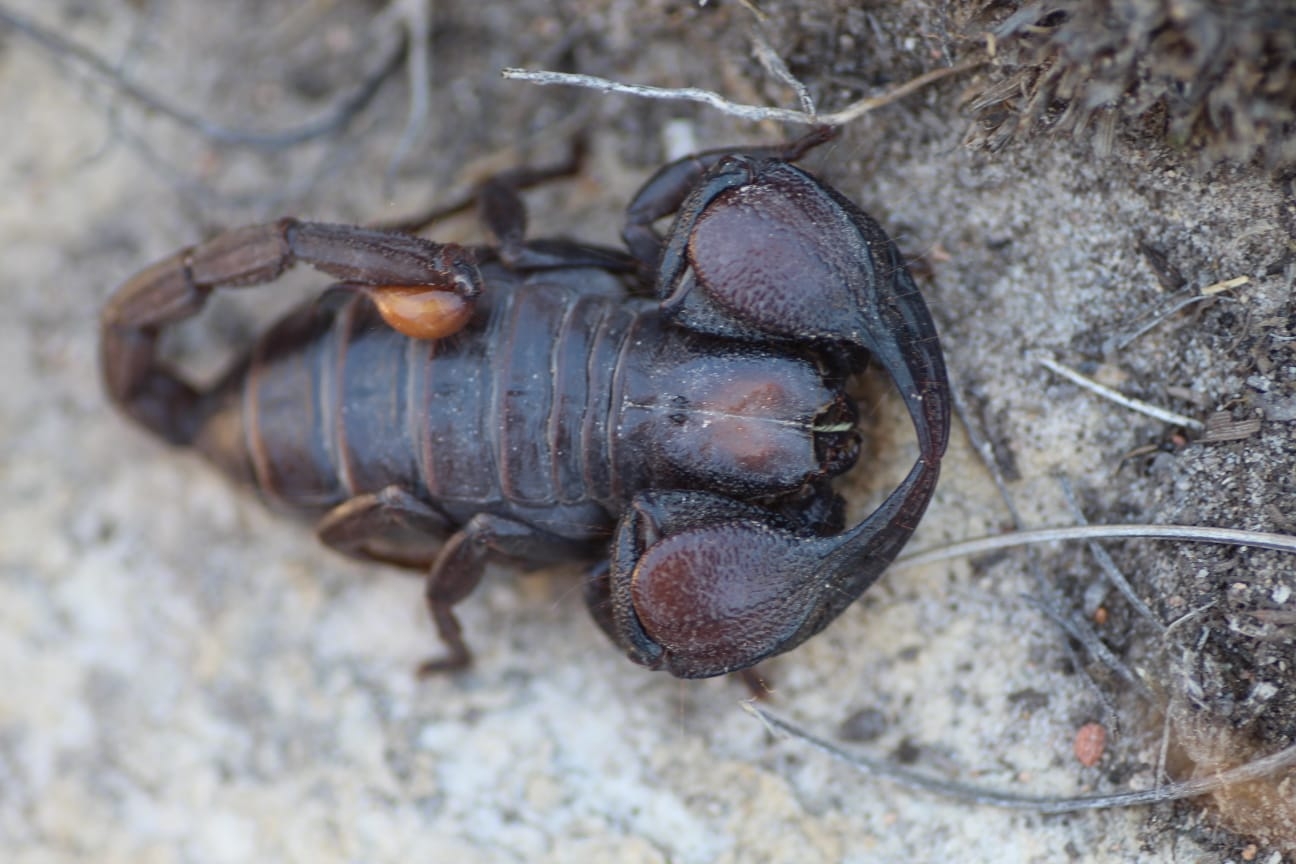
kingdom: Animalia
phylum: Arthropoda
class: Arachnida
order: Scorpiones
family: Scorpionidae
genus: Opistophthalmus
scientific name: Opistophthalmus pattisoni
